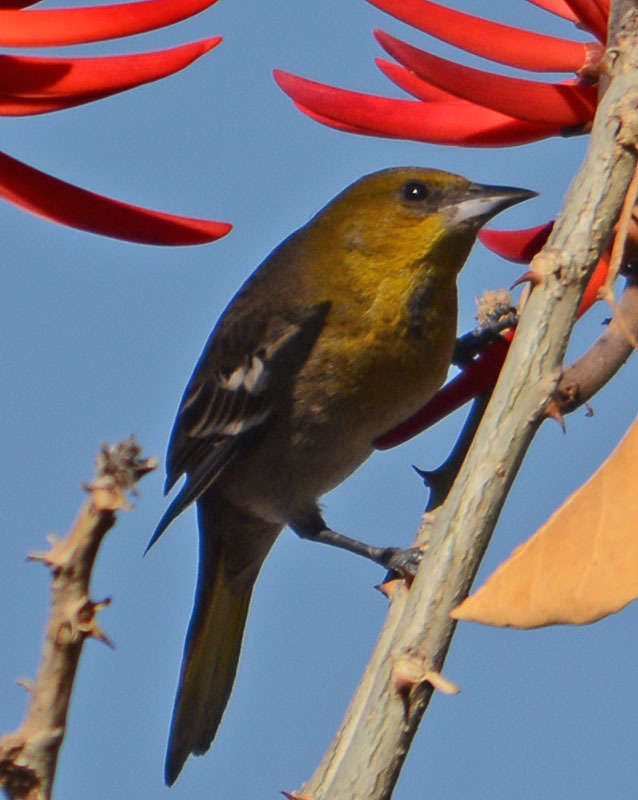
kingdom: Animalia
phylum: Chordata
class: Aves
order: Passeriformes
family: Icteridae
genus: Icterus
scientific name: Icterus bullockii
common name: Bullock's oriole
